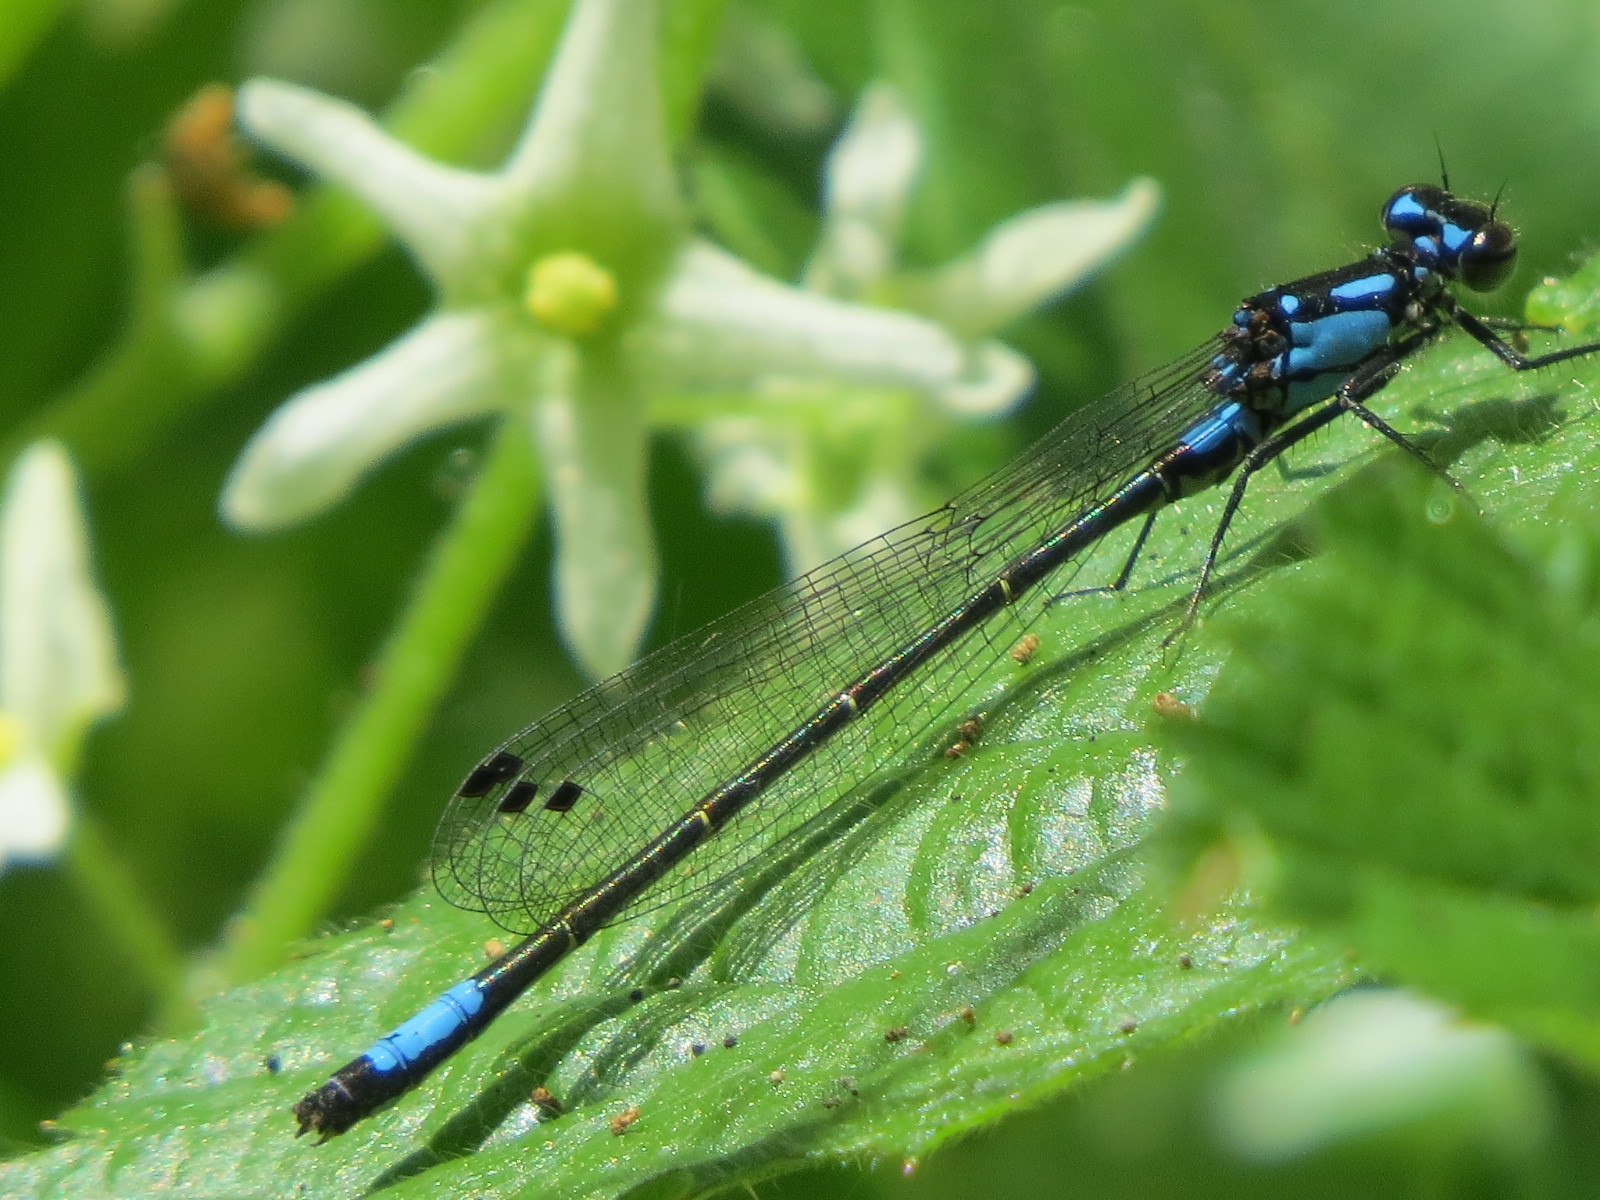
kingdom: Animalia
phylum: Arthropoda
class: Insecta
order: Odonata
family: Coenagrionidae
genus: Zoniagrion
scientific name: Zoniagrion exclamationis
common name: Exclamation damsel
